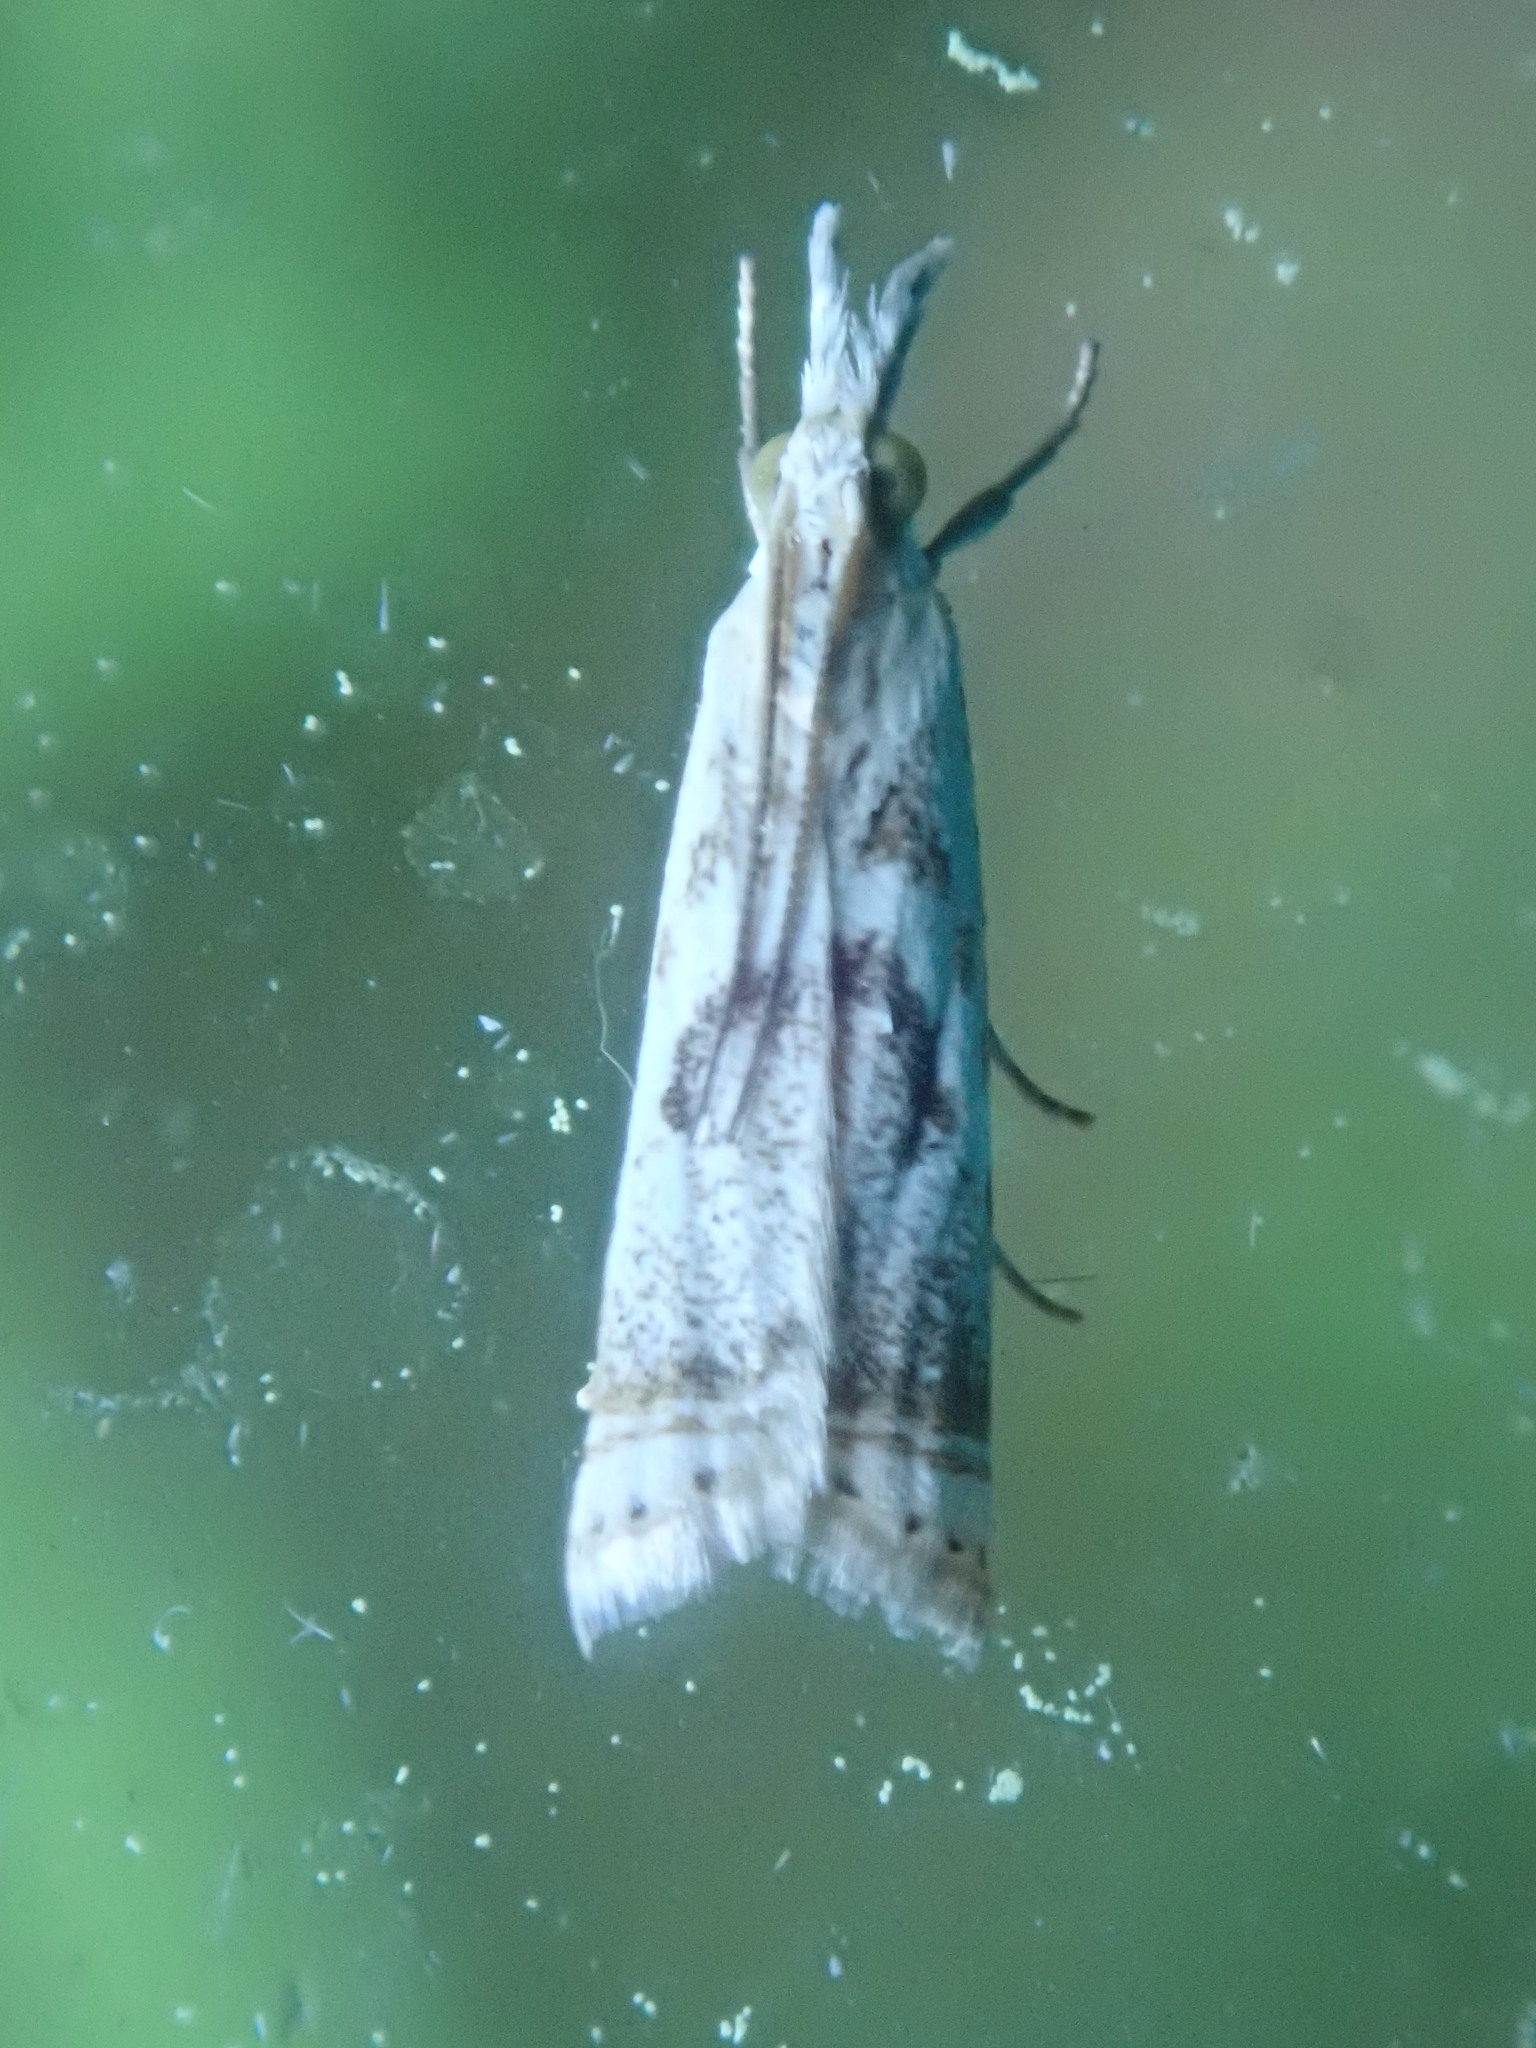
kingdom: Animalia
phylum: Arthropoda
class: Insecta
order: Lepidoptera
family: Crambidae
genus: Microcrambus
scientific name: Microcrambus elegans
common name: Elegant grass-veneer
